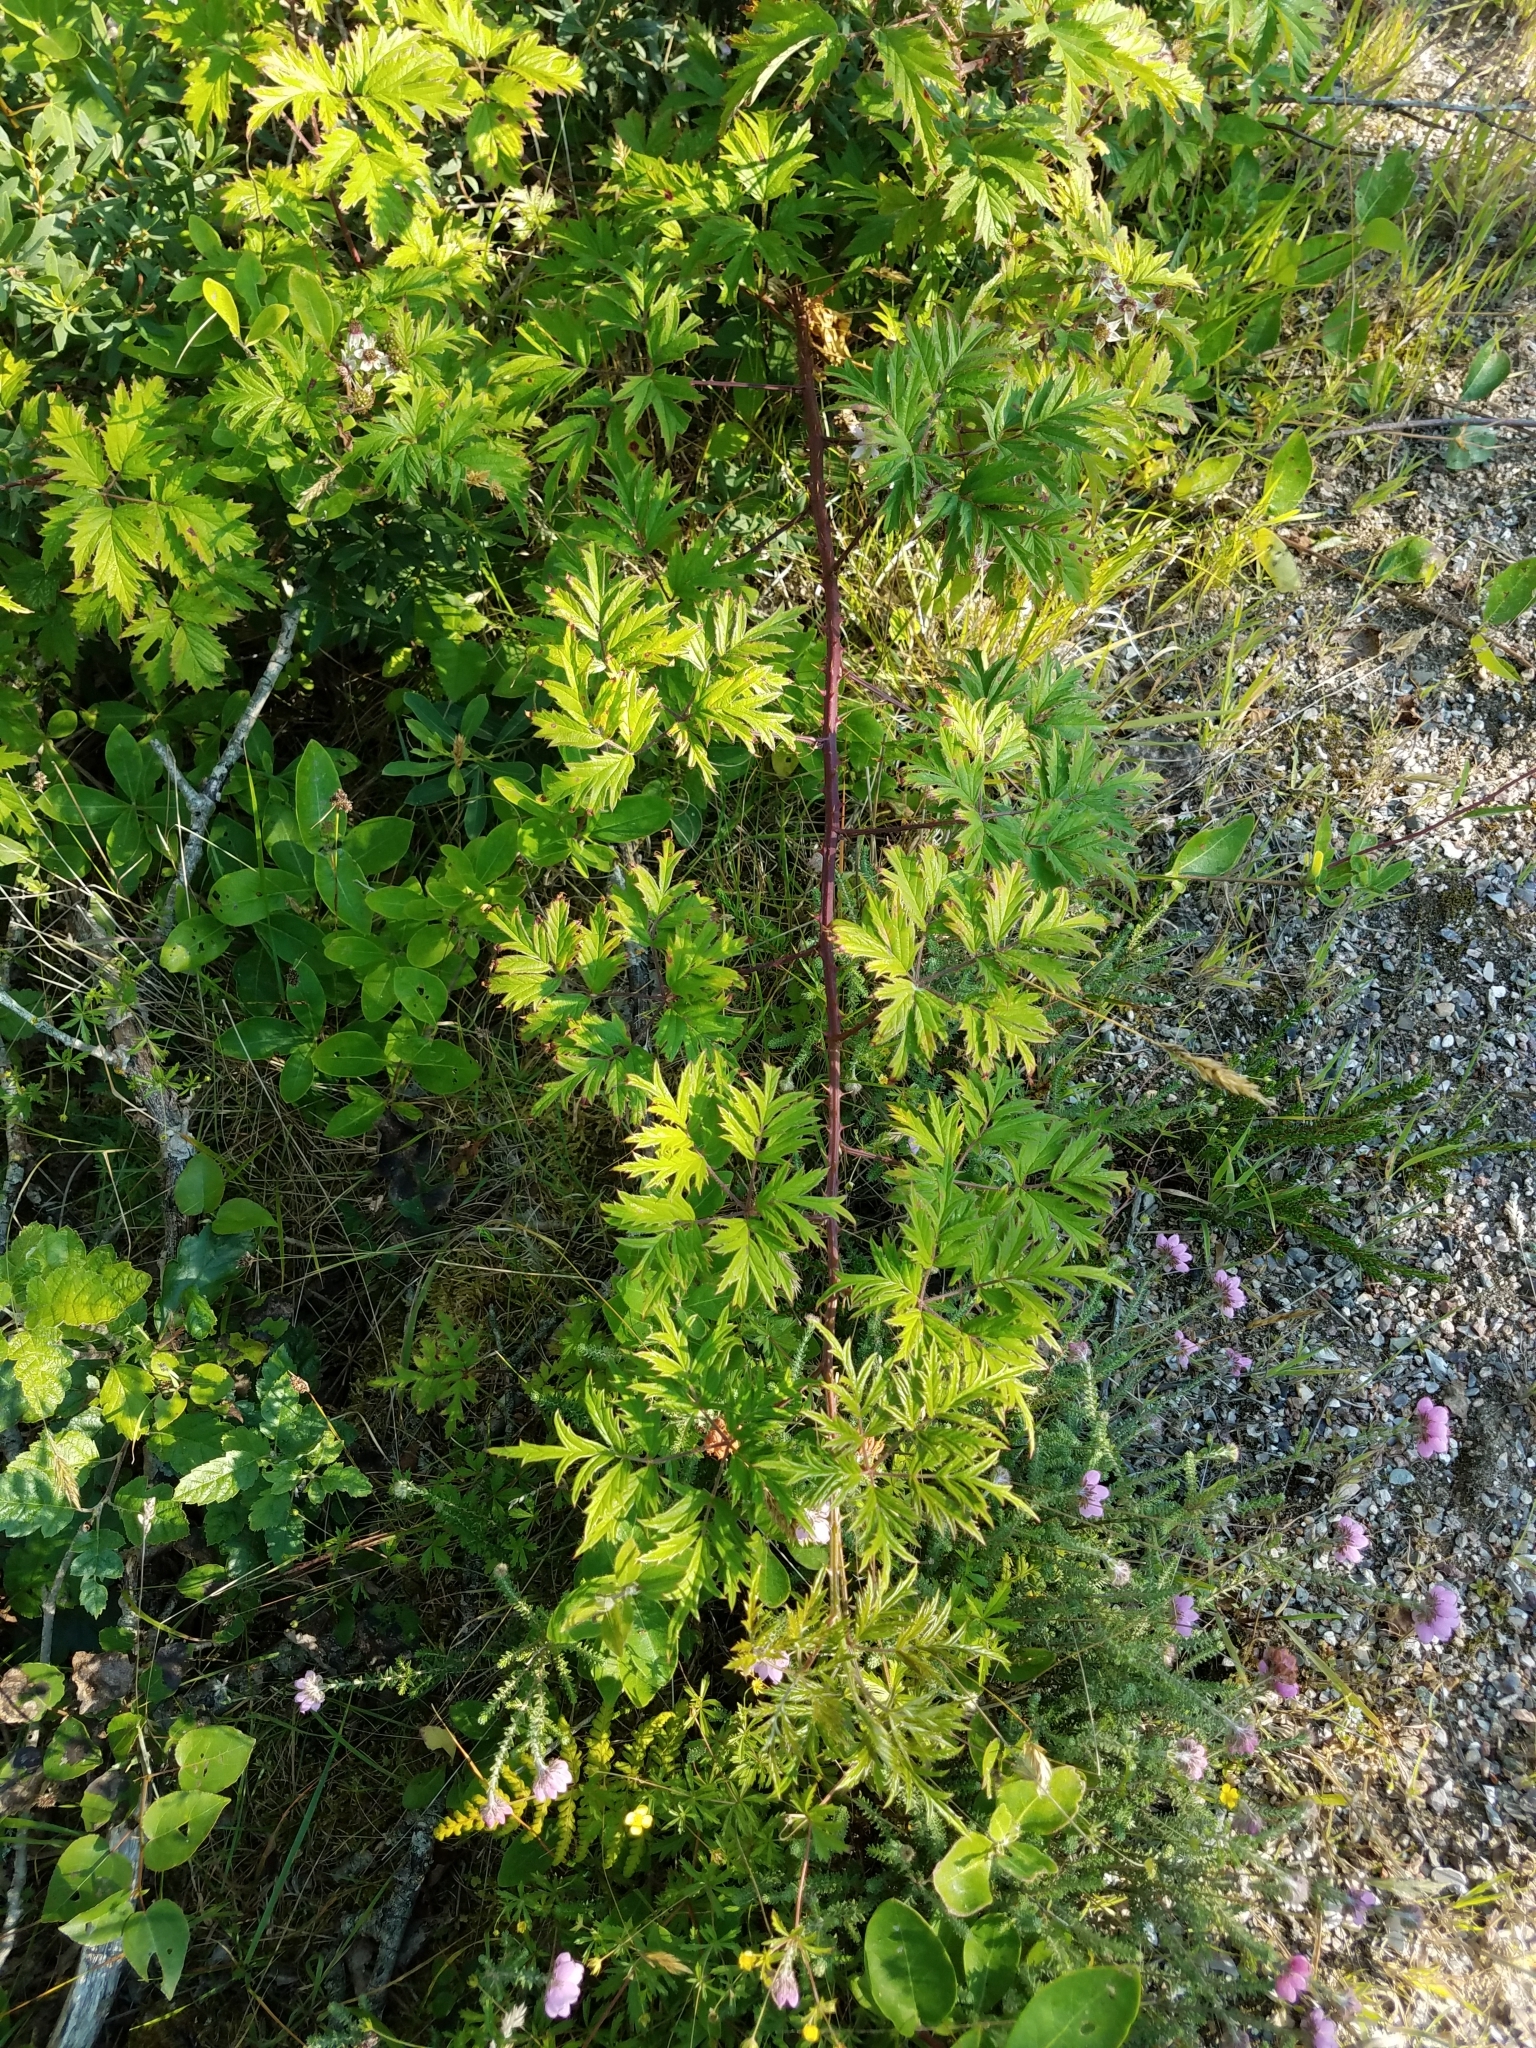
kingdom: Plantae
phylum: Tracheophyta
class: Magnoliopsida
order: Rosales
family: Rosaceae
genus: Rubus
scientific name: Rubus laciniatus
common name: Evergreen blackberry
